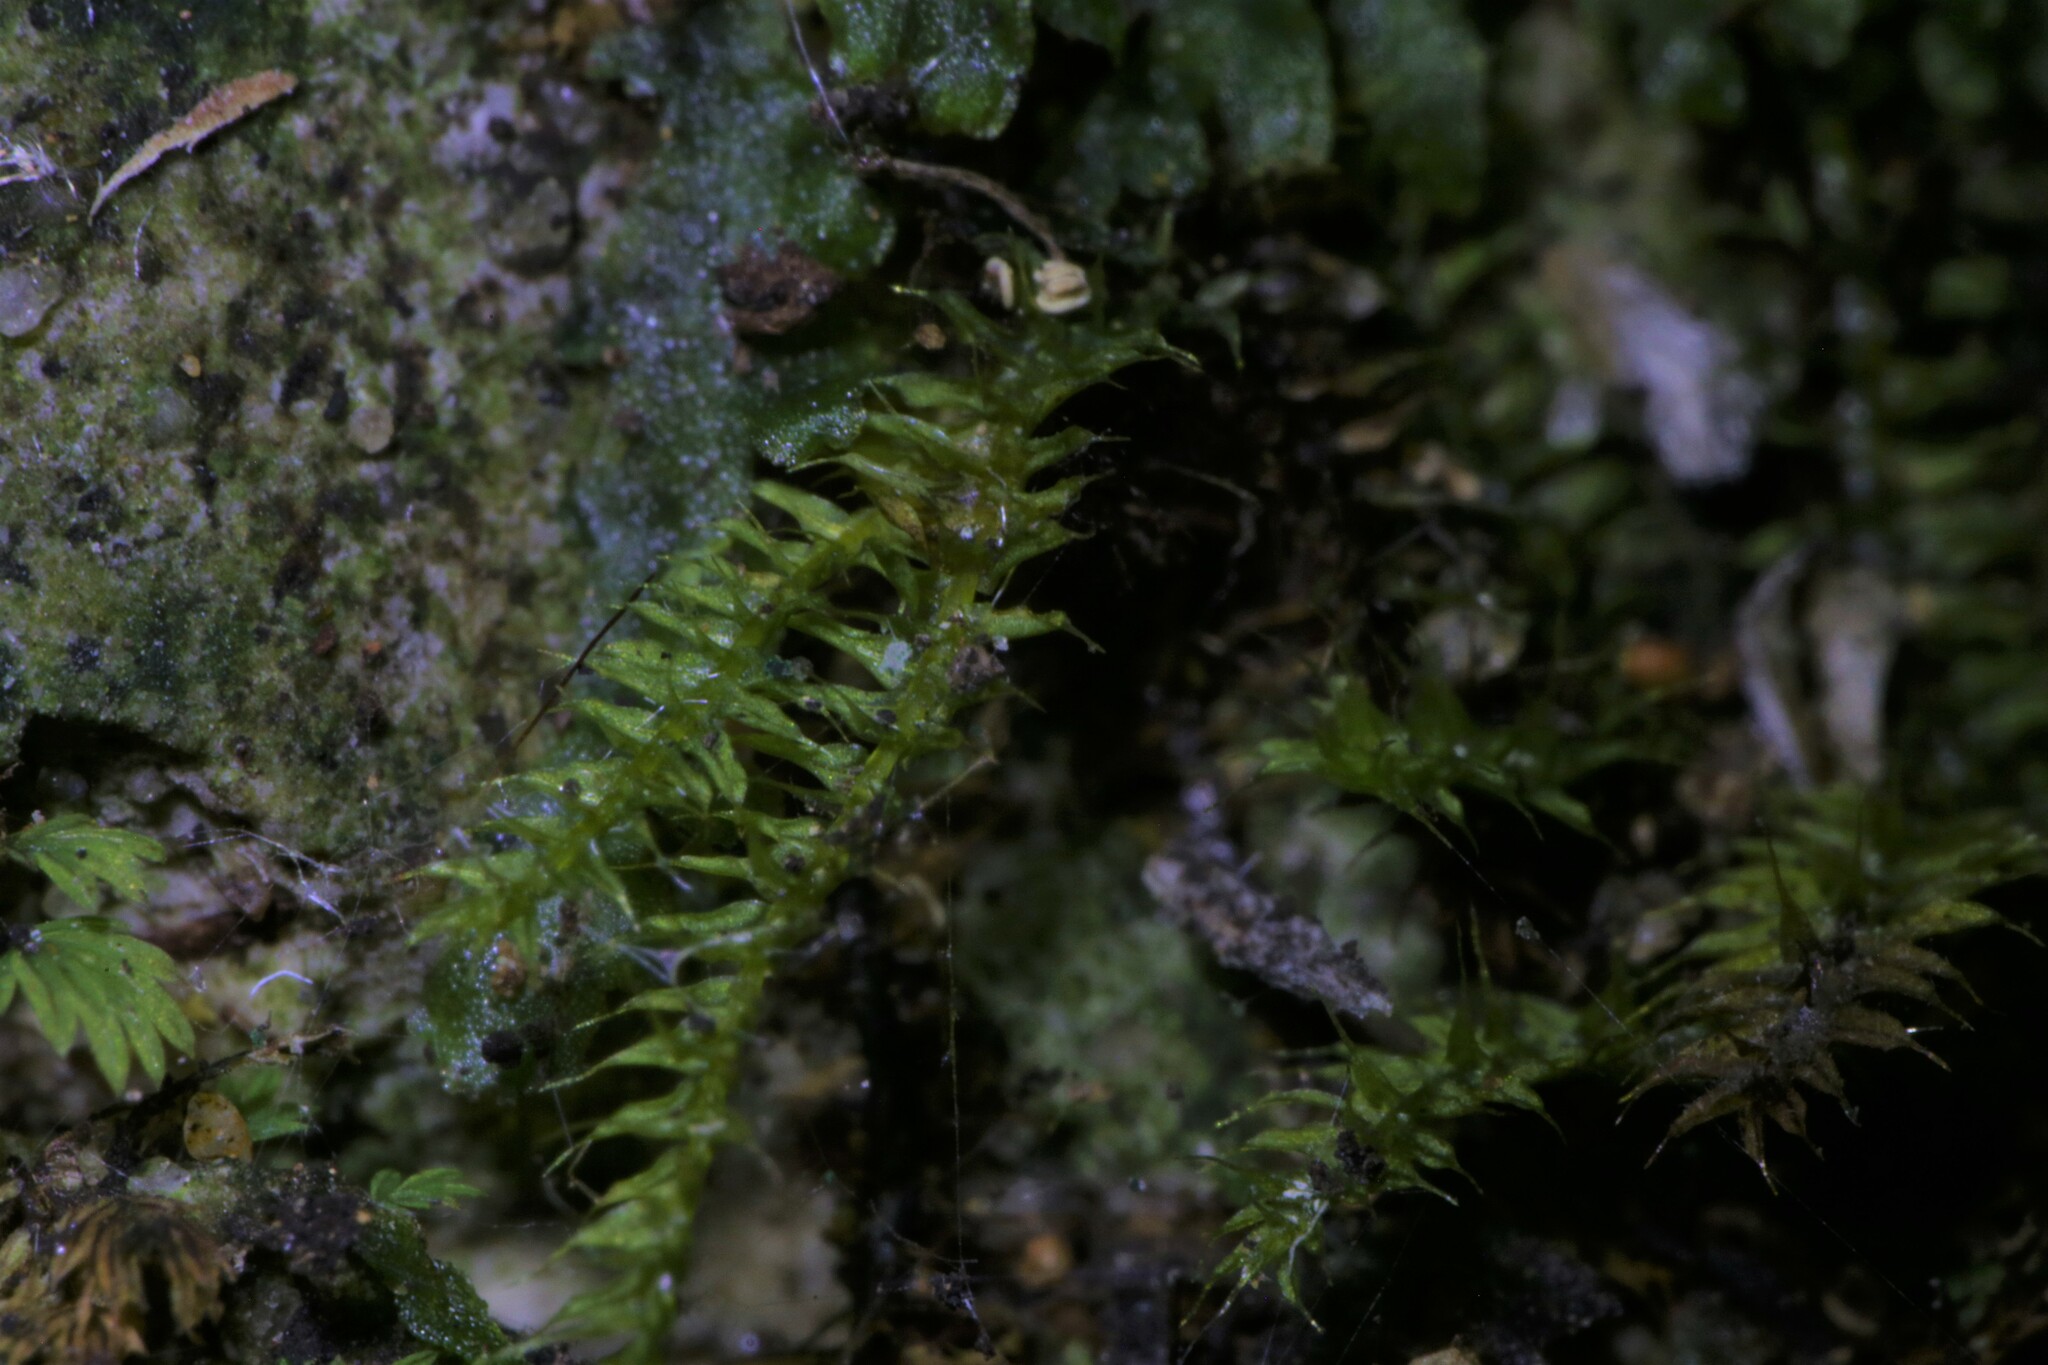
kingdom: Plantae
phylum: Bryophyta
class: Bryopsida
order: Hypnodendrales
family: Racopilaceae
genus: Racopilum
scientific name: Racopilum cuspidigerum
